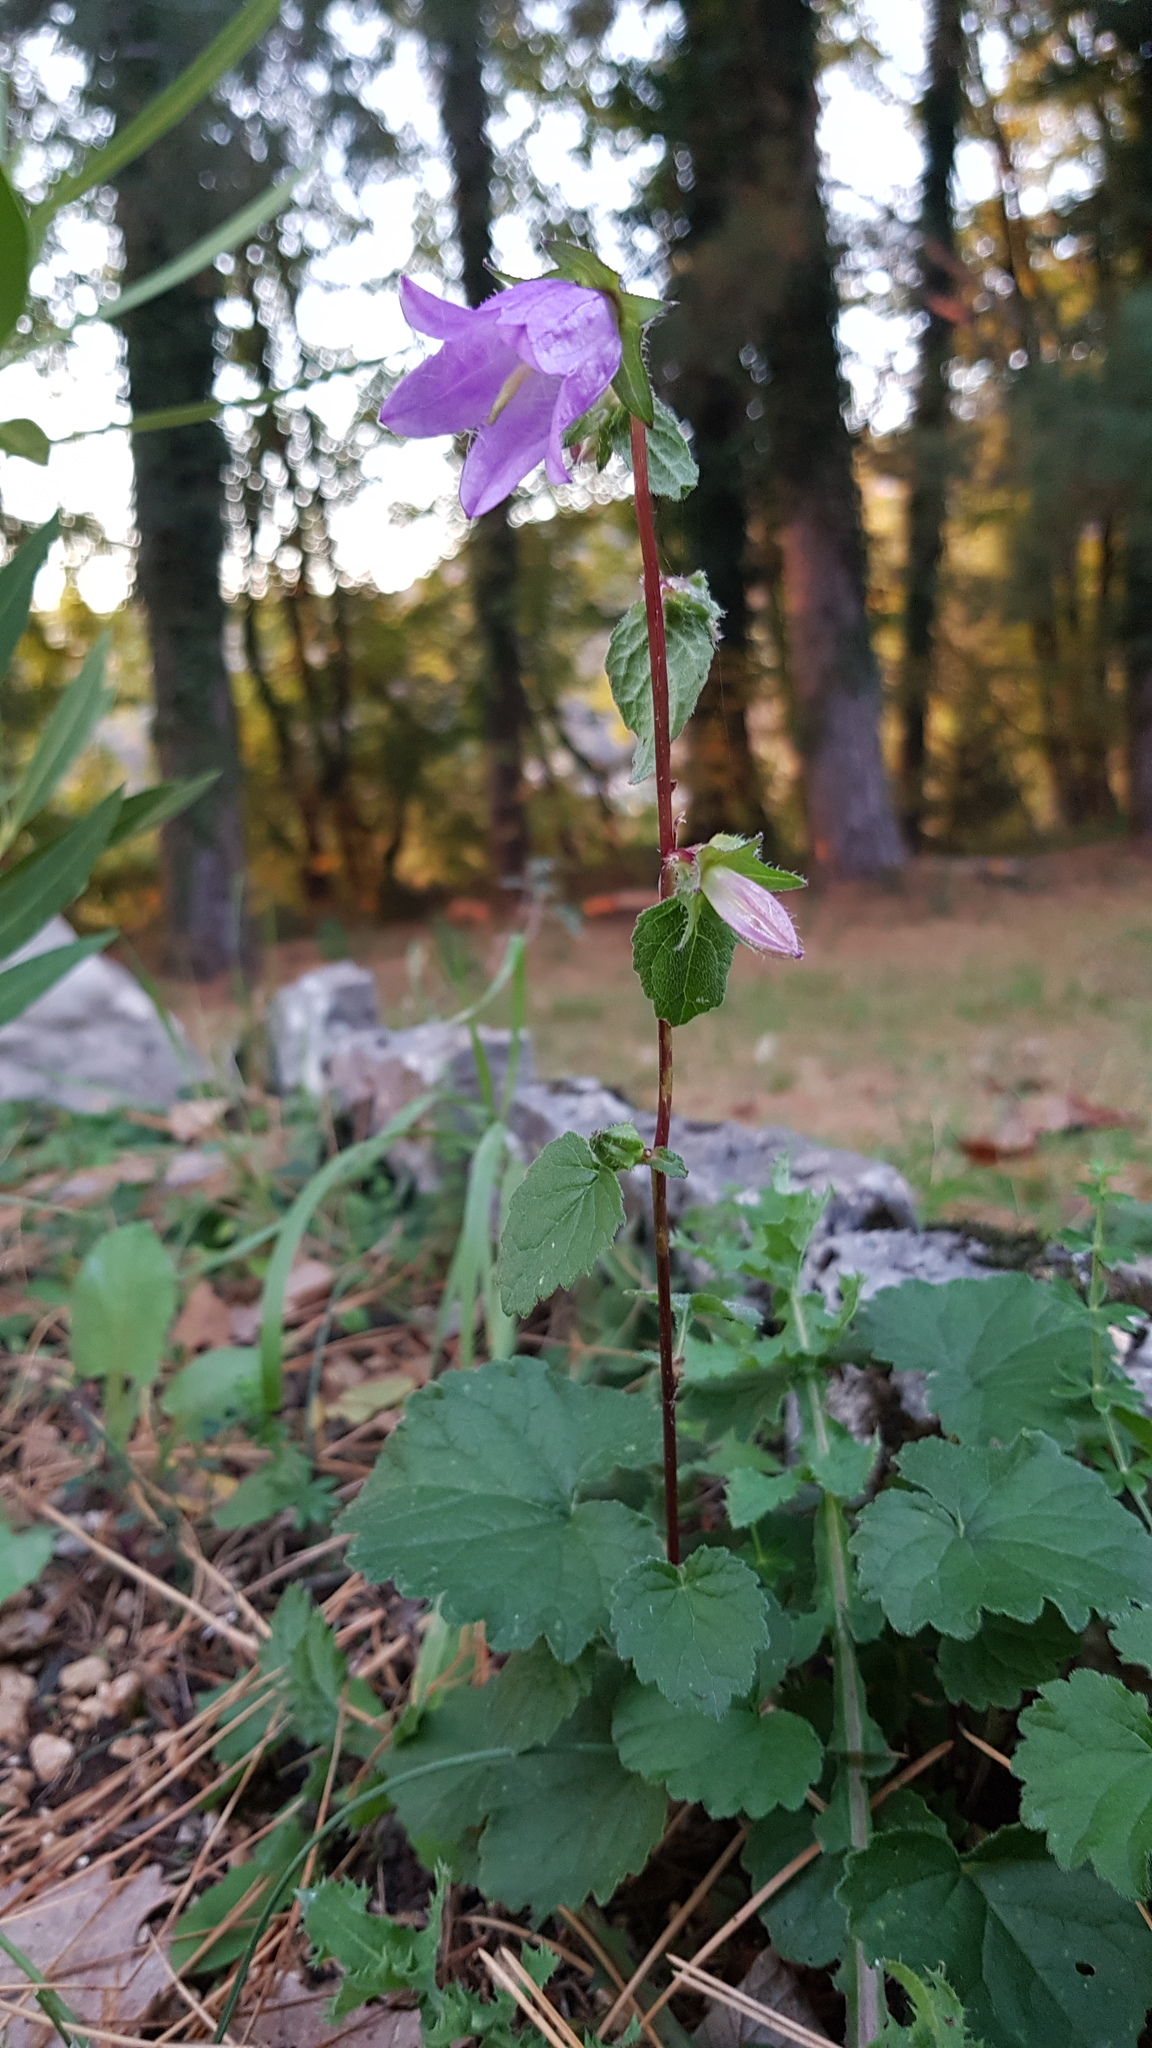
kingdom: Plantae
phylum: Tracheophyta
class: Magnoliopsida
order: Asterales
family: Campanulaceae
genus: Campanula
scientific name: Campanula trachelium
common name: Nettle-leaved bellflower
